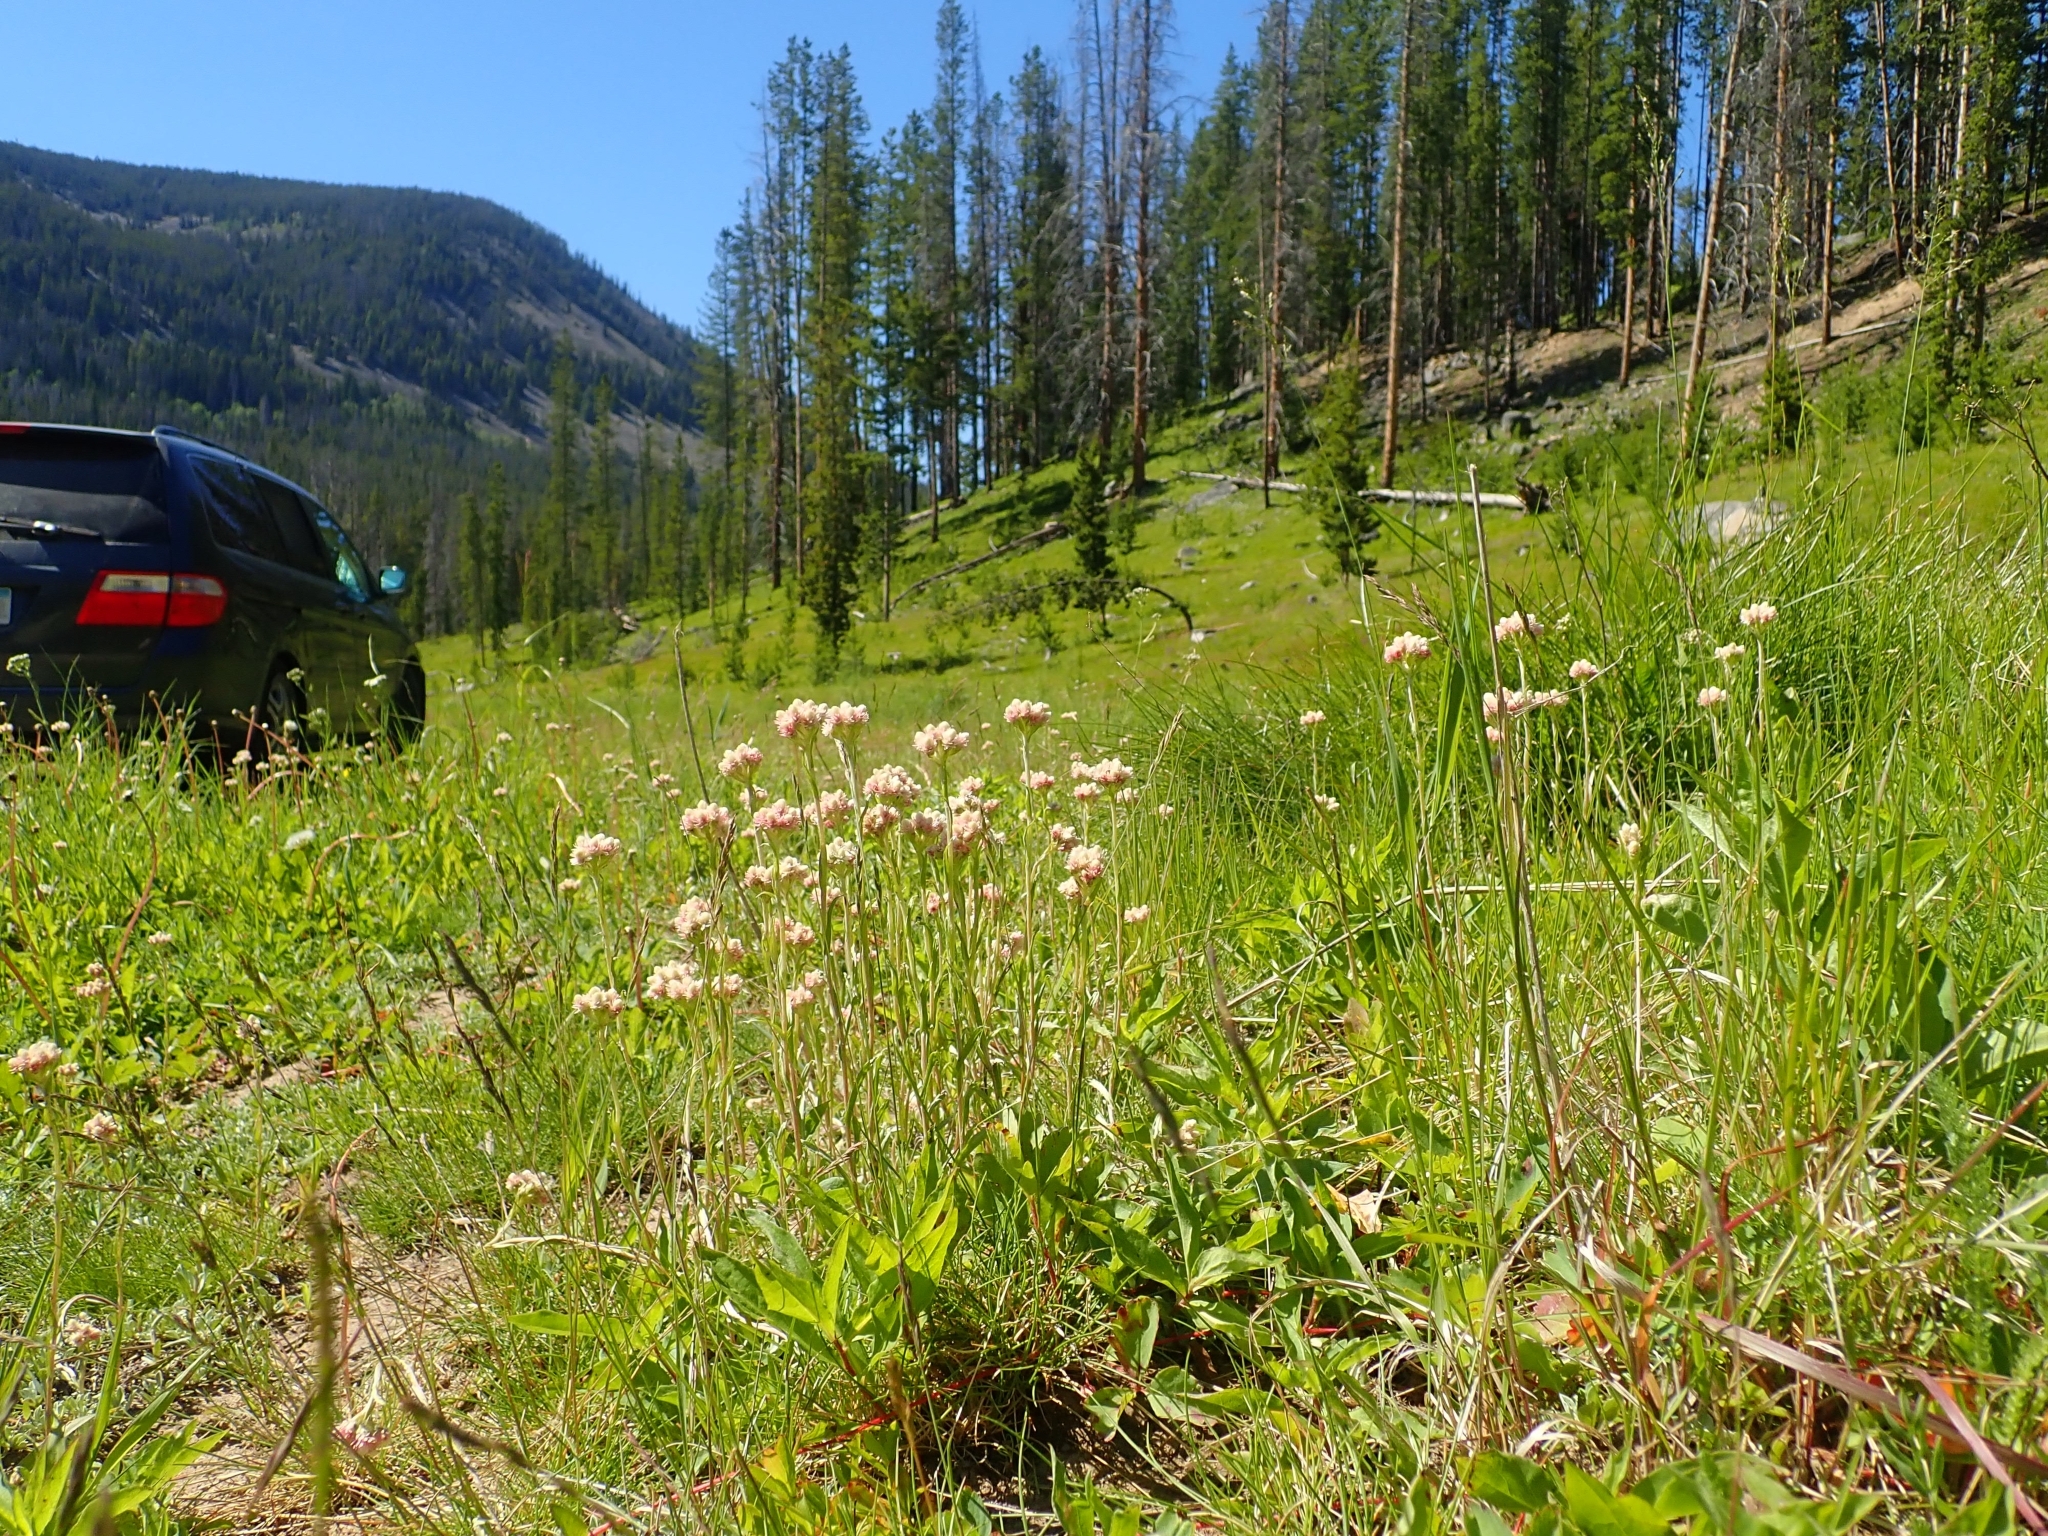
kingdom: Plantae
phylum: Tracheophyta
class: Magnoliopsida
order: Asterales
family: Asteraceae
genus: Antennaria
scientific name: Antennaria rosea
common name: Rosy pussytoes
